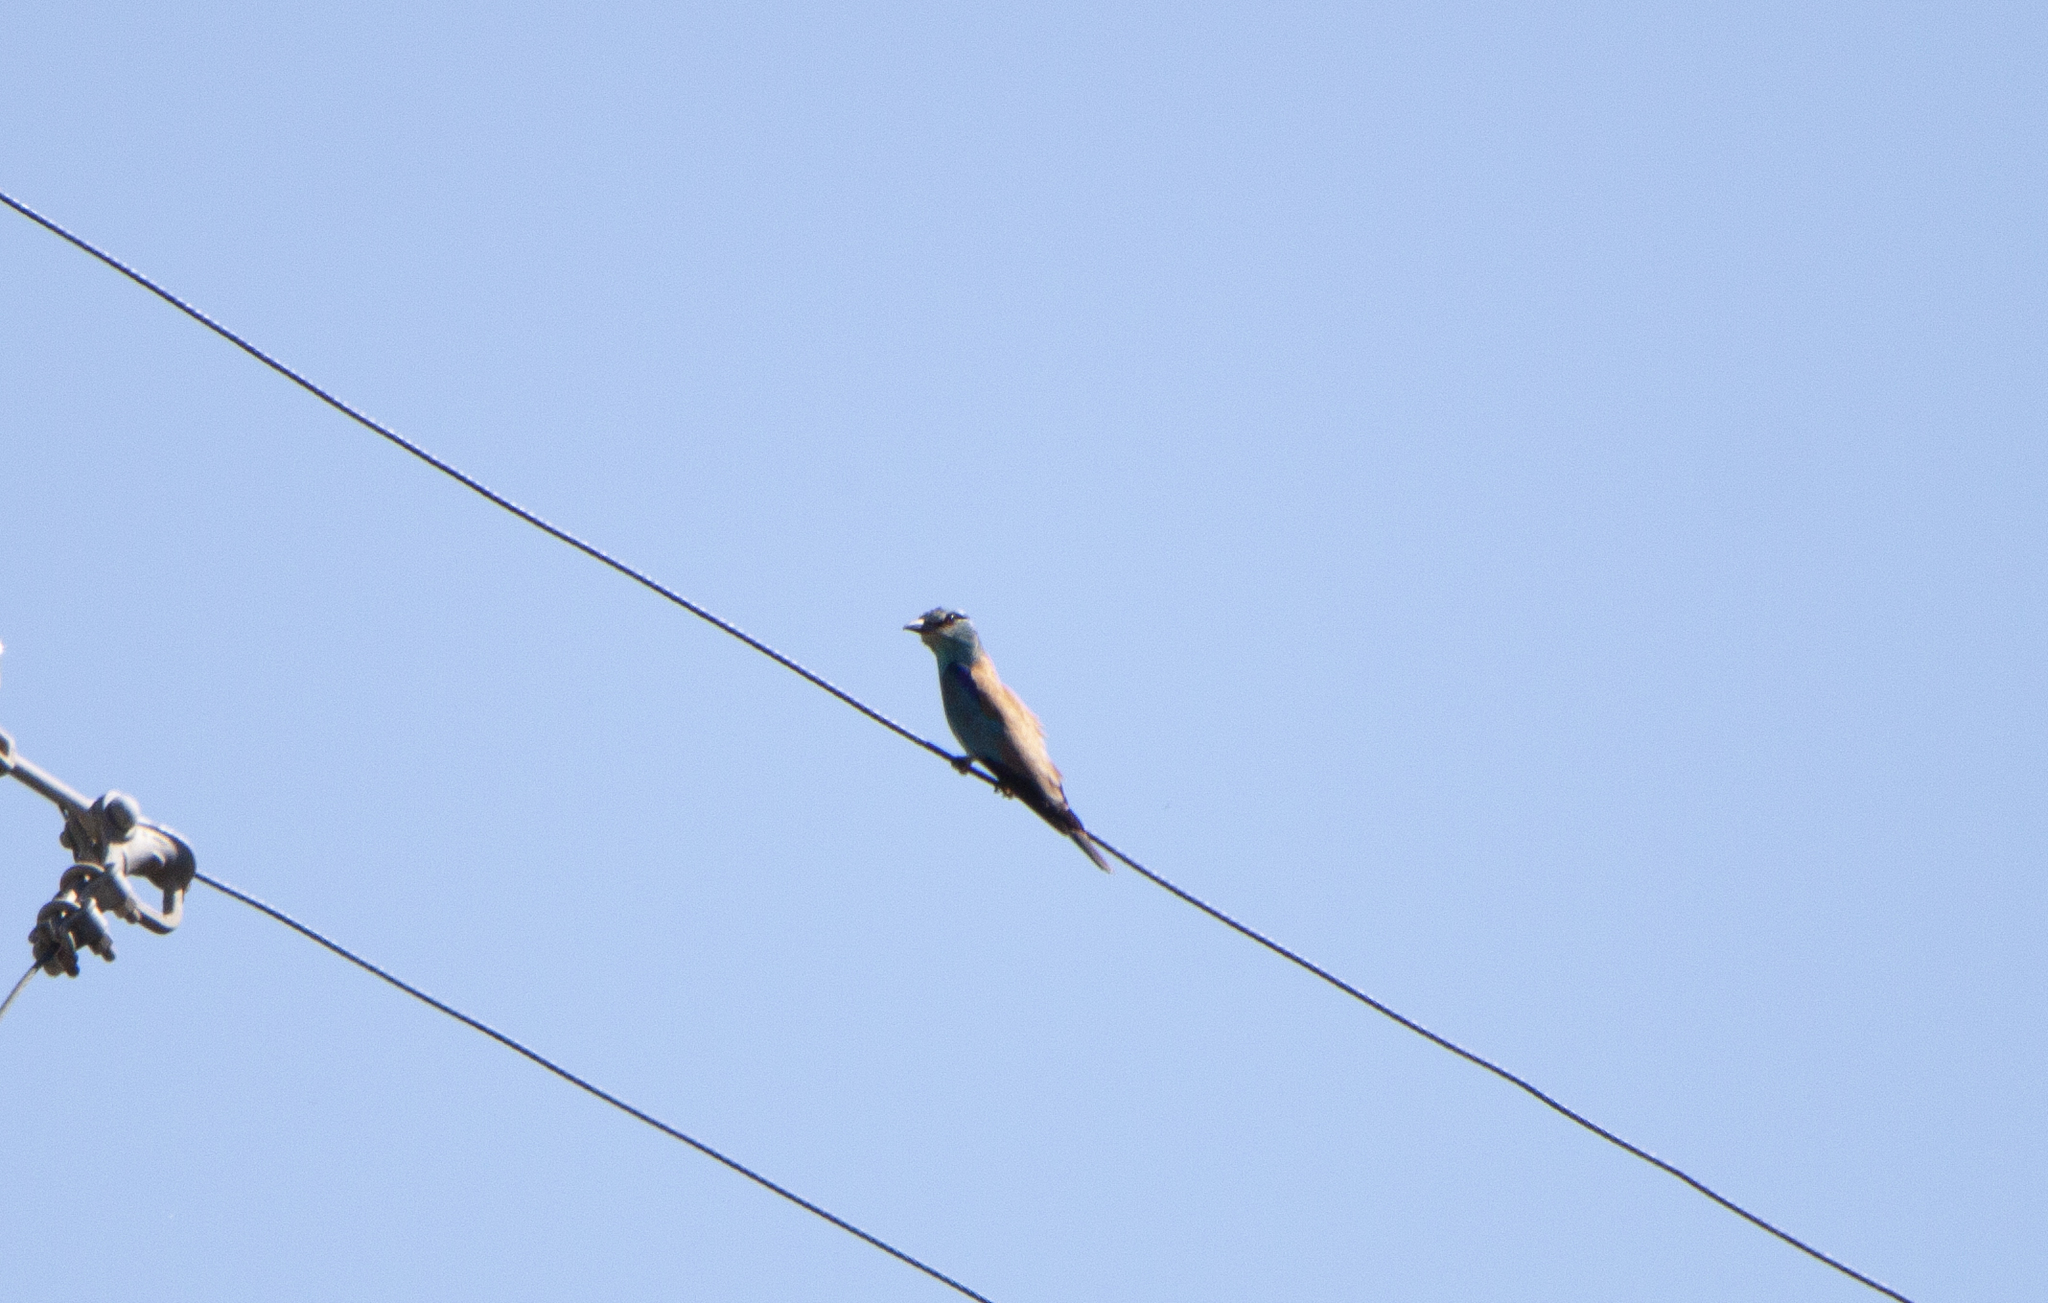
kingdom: Animalia
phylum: Chordata
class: Aves
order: Coraciiformes
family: Coraciidae
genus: Coracias
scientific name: Coracias garrulus
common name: European roller
